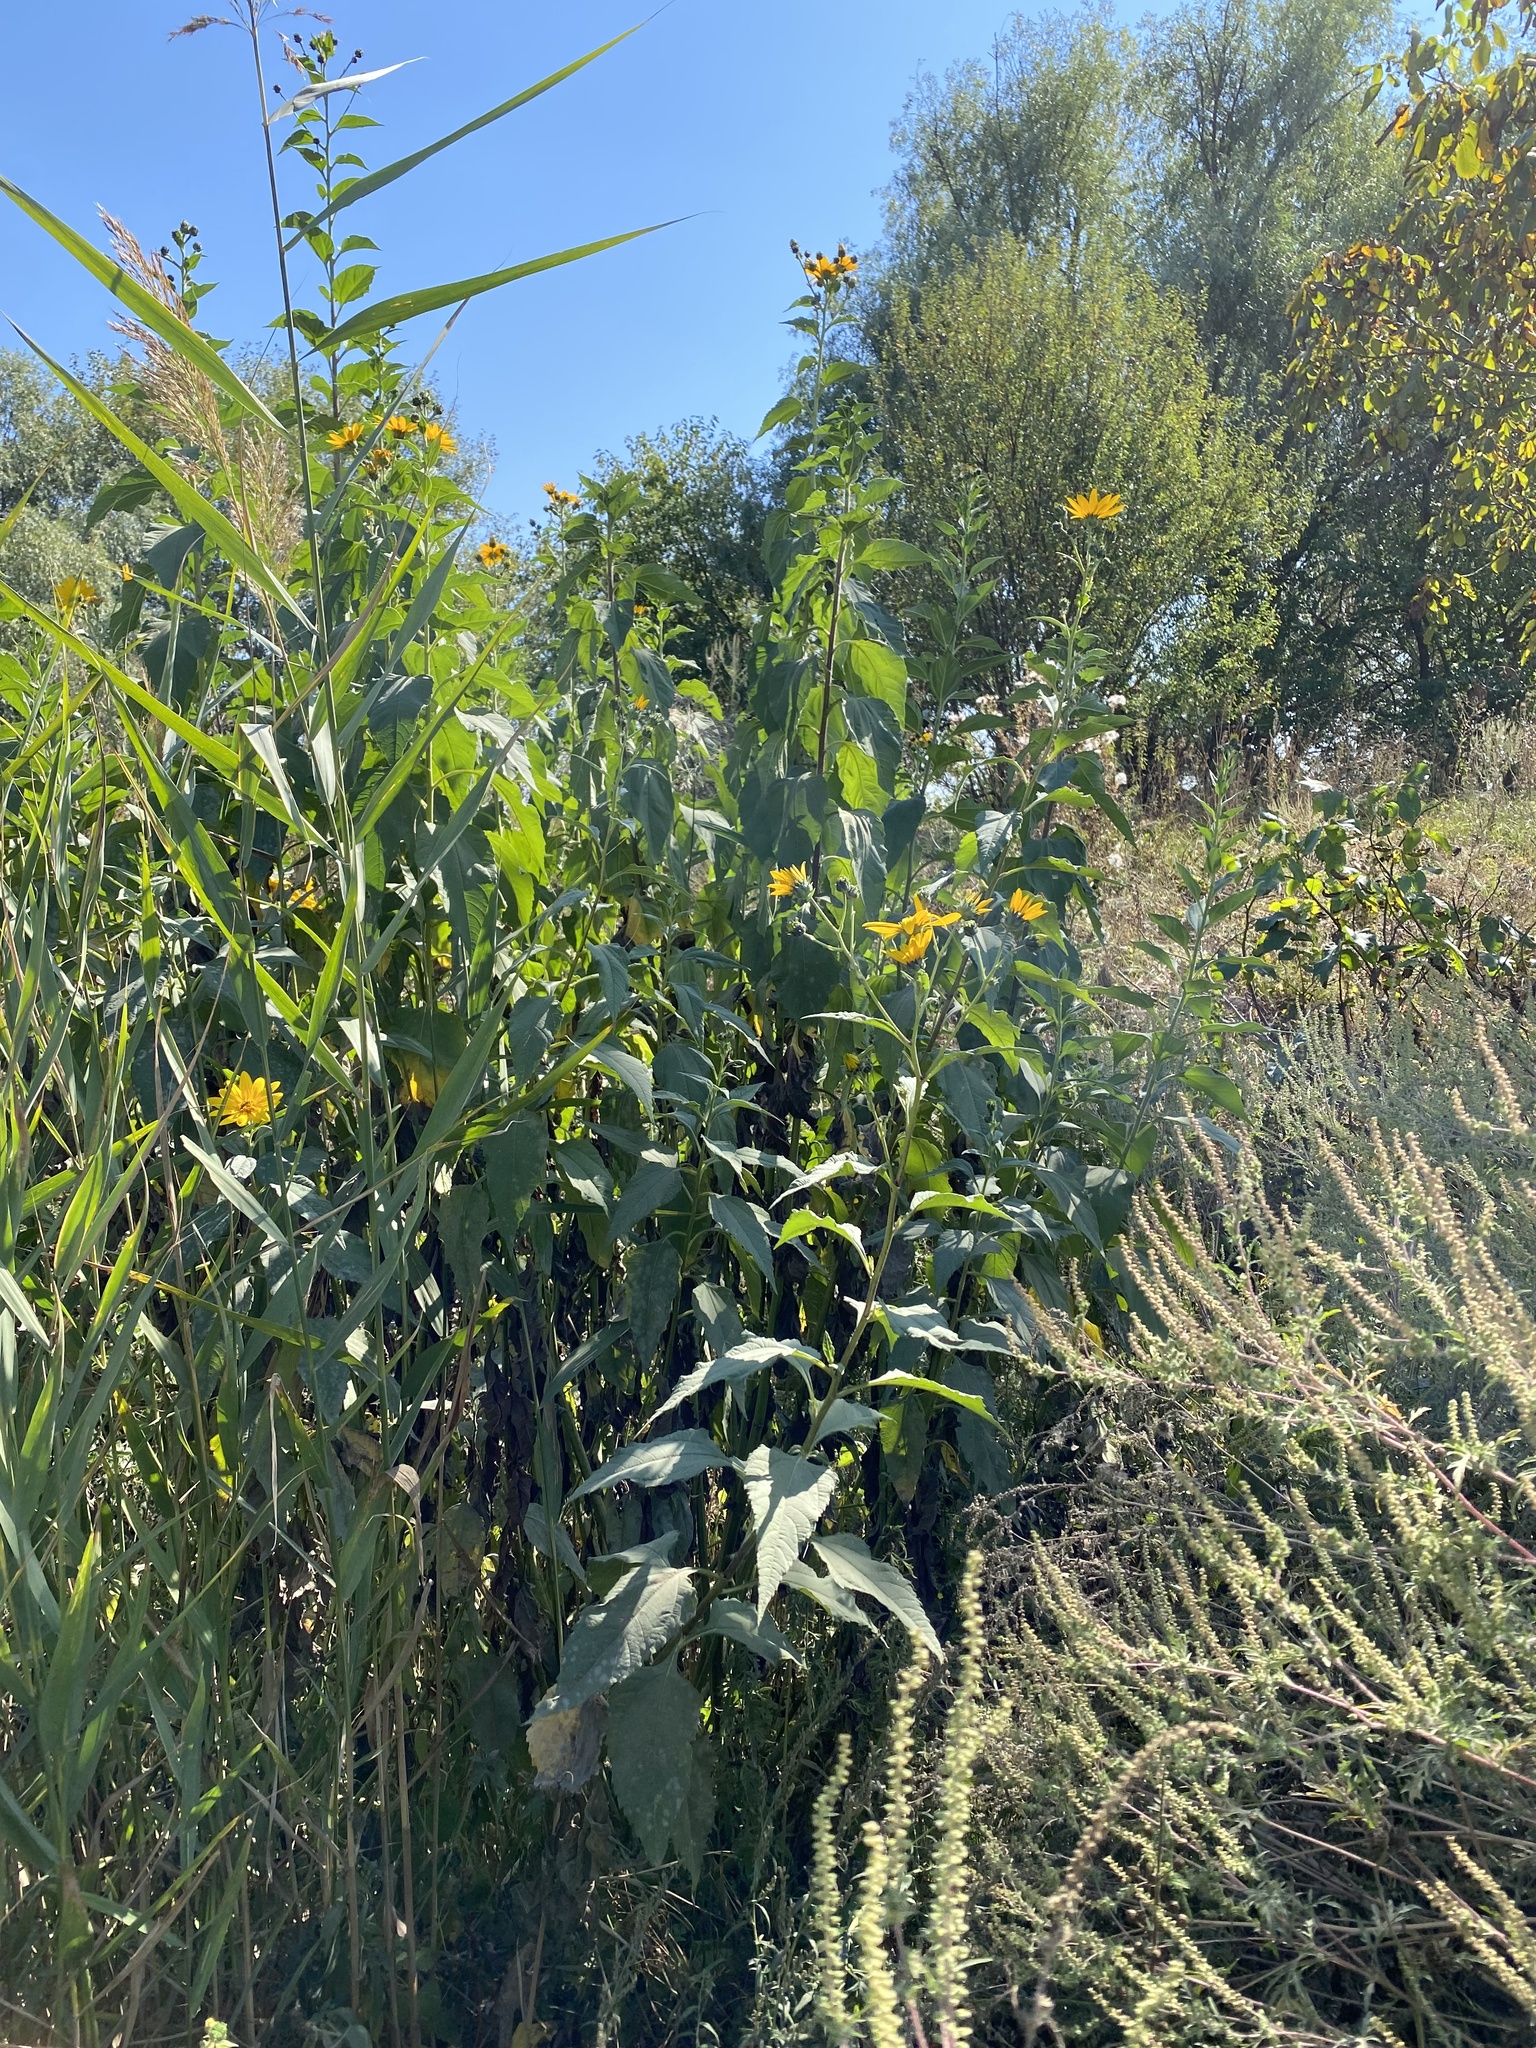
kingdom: Plantae
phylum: Tracheophyta
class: Magnoliopsida
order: Asterales
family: Asteraceae
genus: Helianthus
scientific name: Helianthus tuberosus
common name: Jerusalem artichoke
